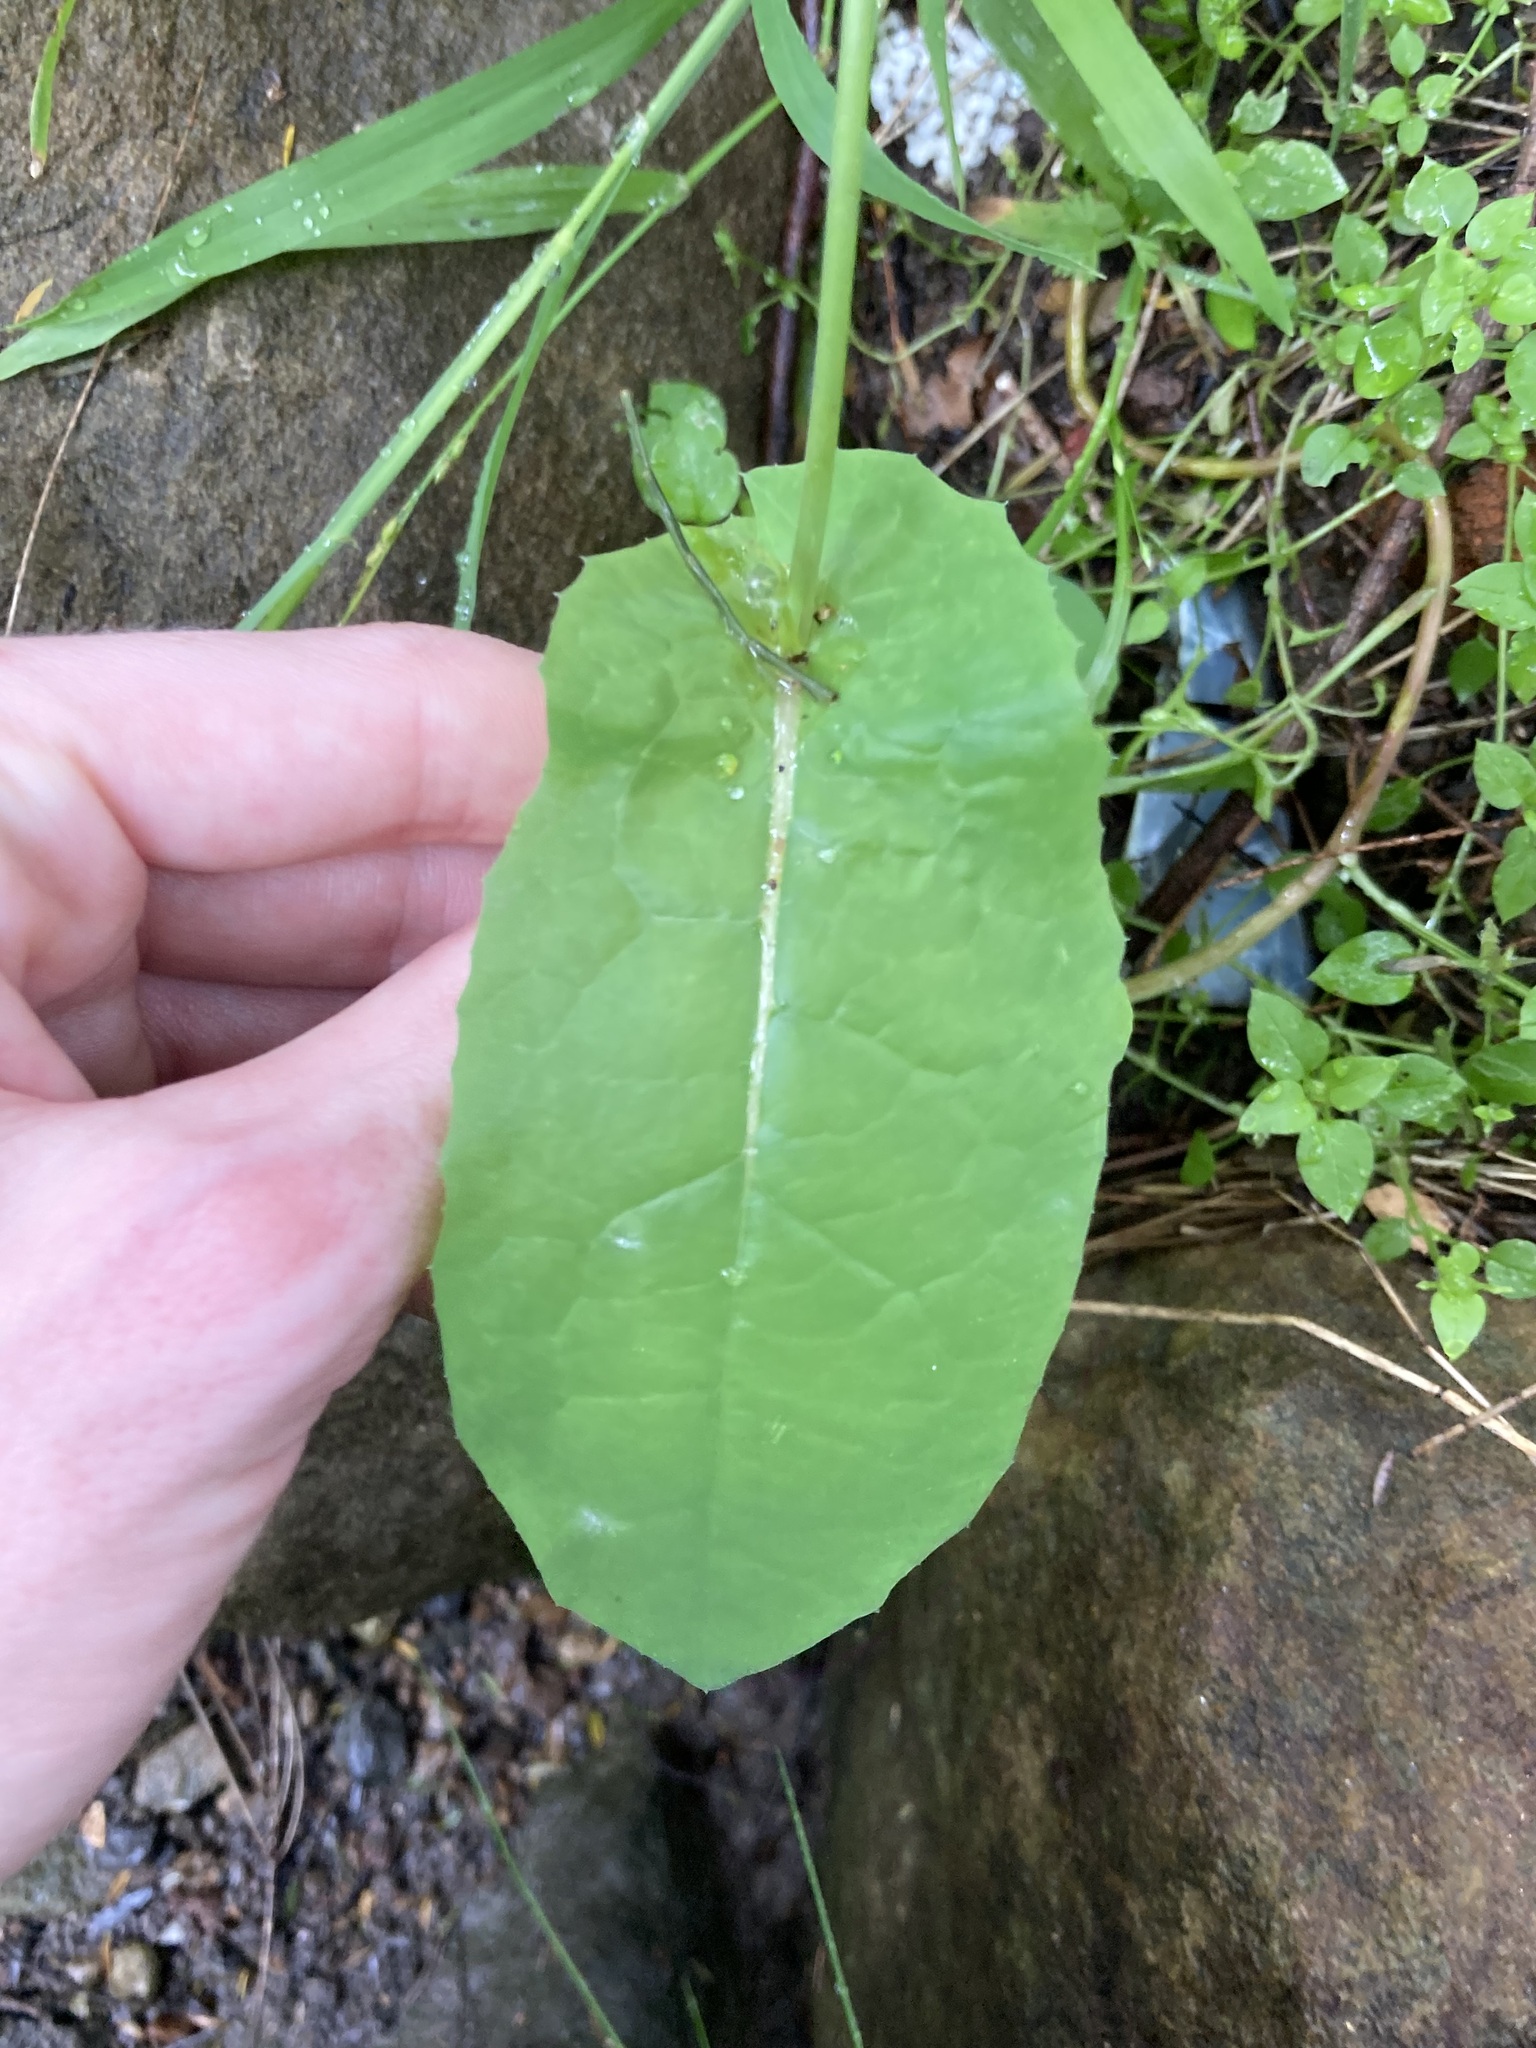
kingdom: Plantae
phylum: Tracheophyta
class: Magnoliopsida
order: Asterales
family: Asteraceae
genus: Sonchus
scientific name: Sonchus oleraceus
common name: Common sowthistle
